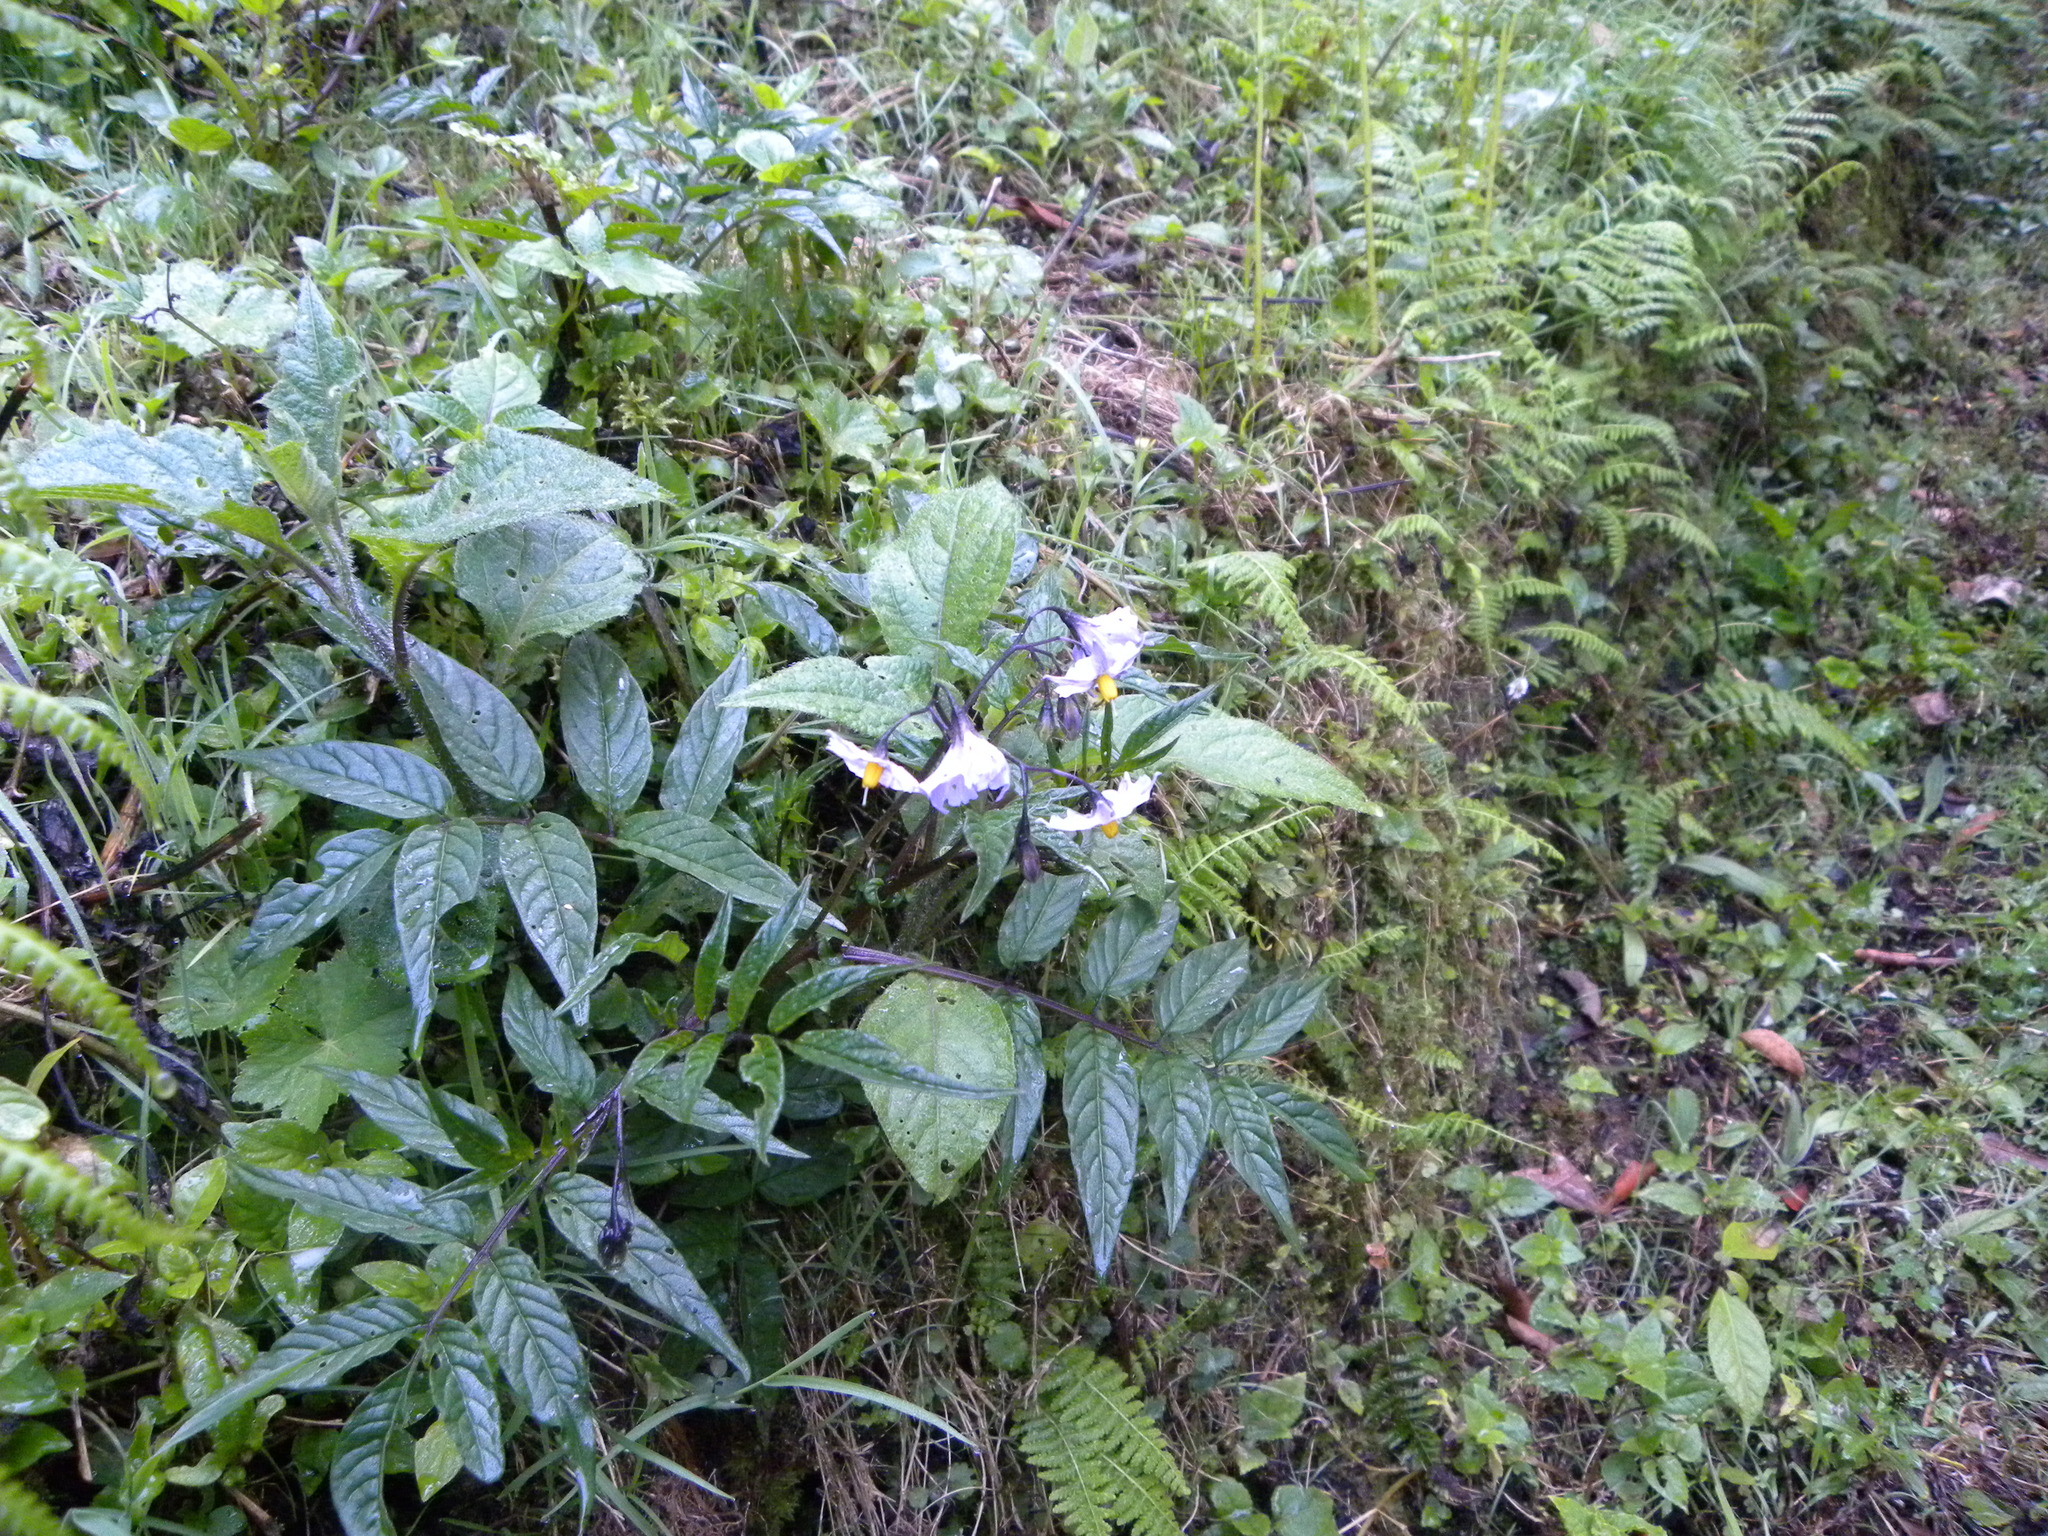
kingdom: Plantae
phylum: Tracheophyta
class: Magnoliopsida
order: Solanales
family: Solanaceae
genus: Solanum
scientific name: Solanum longiconicum
